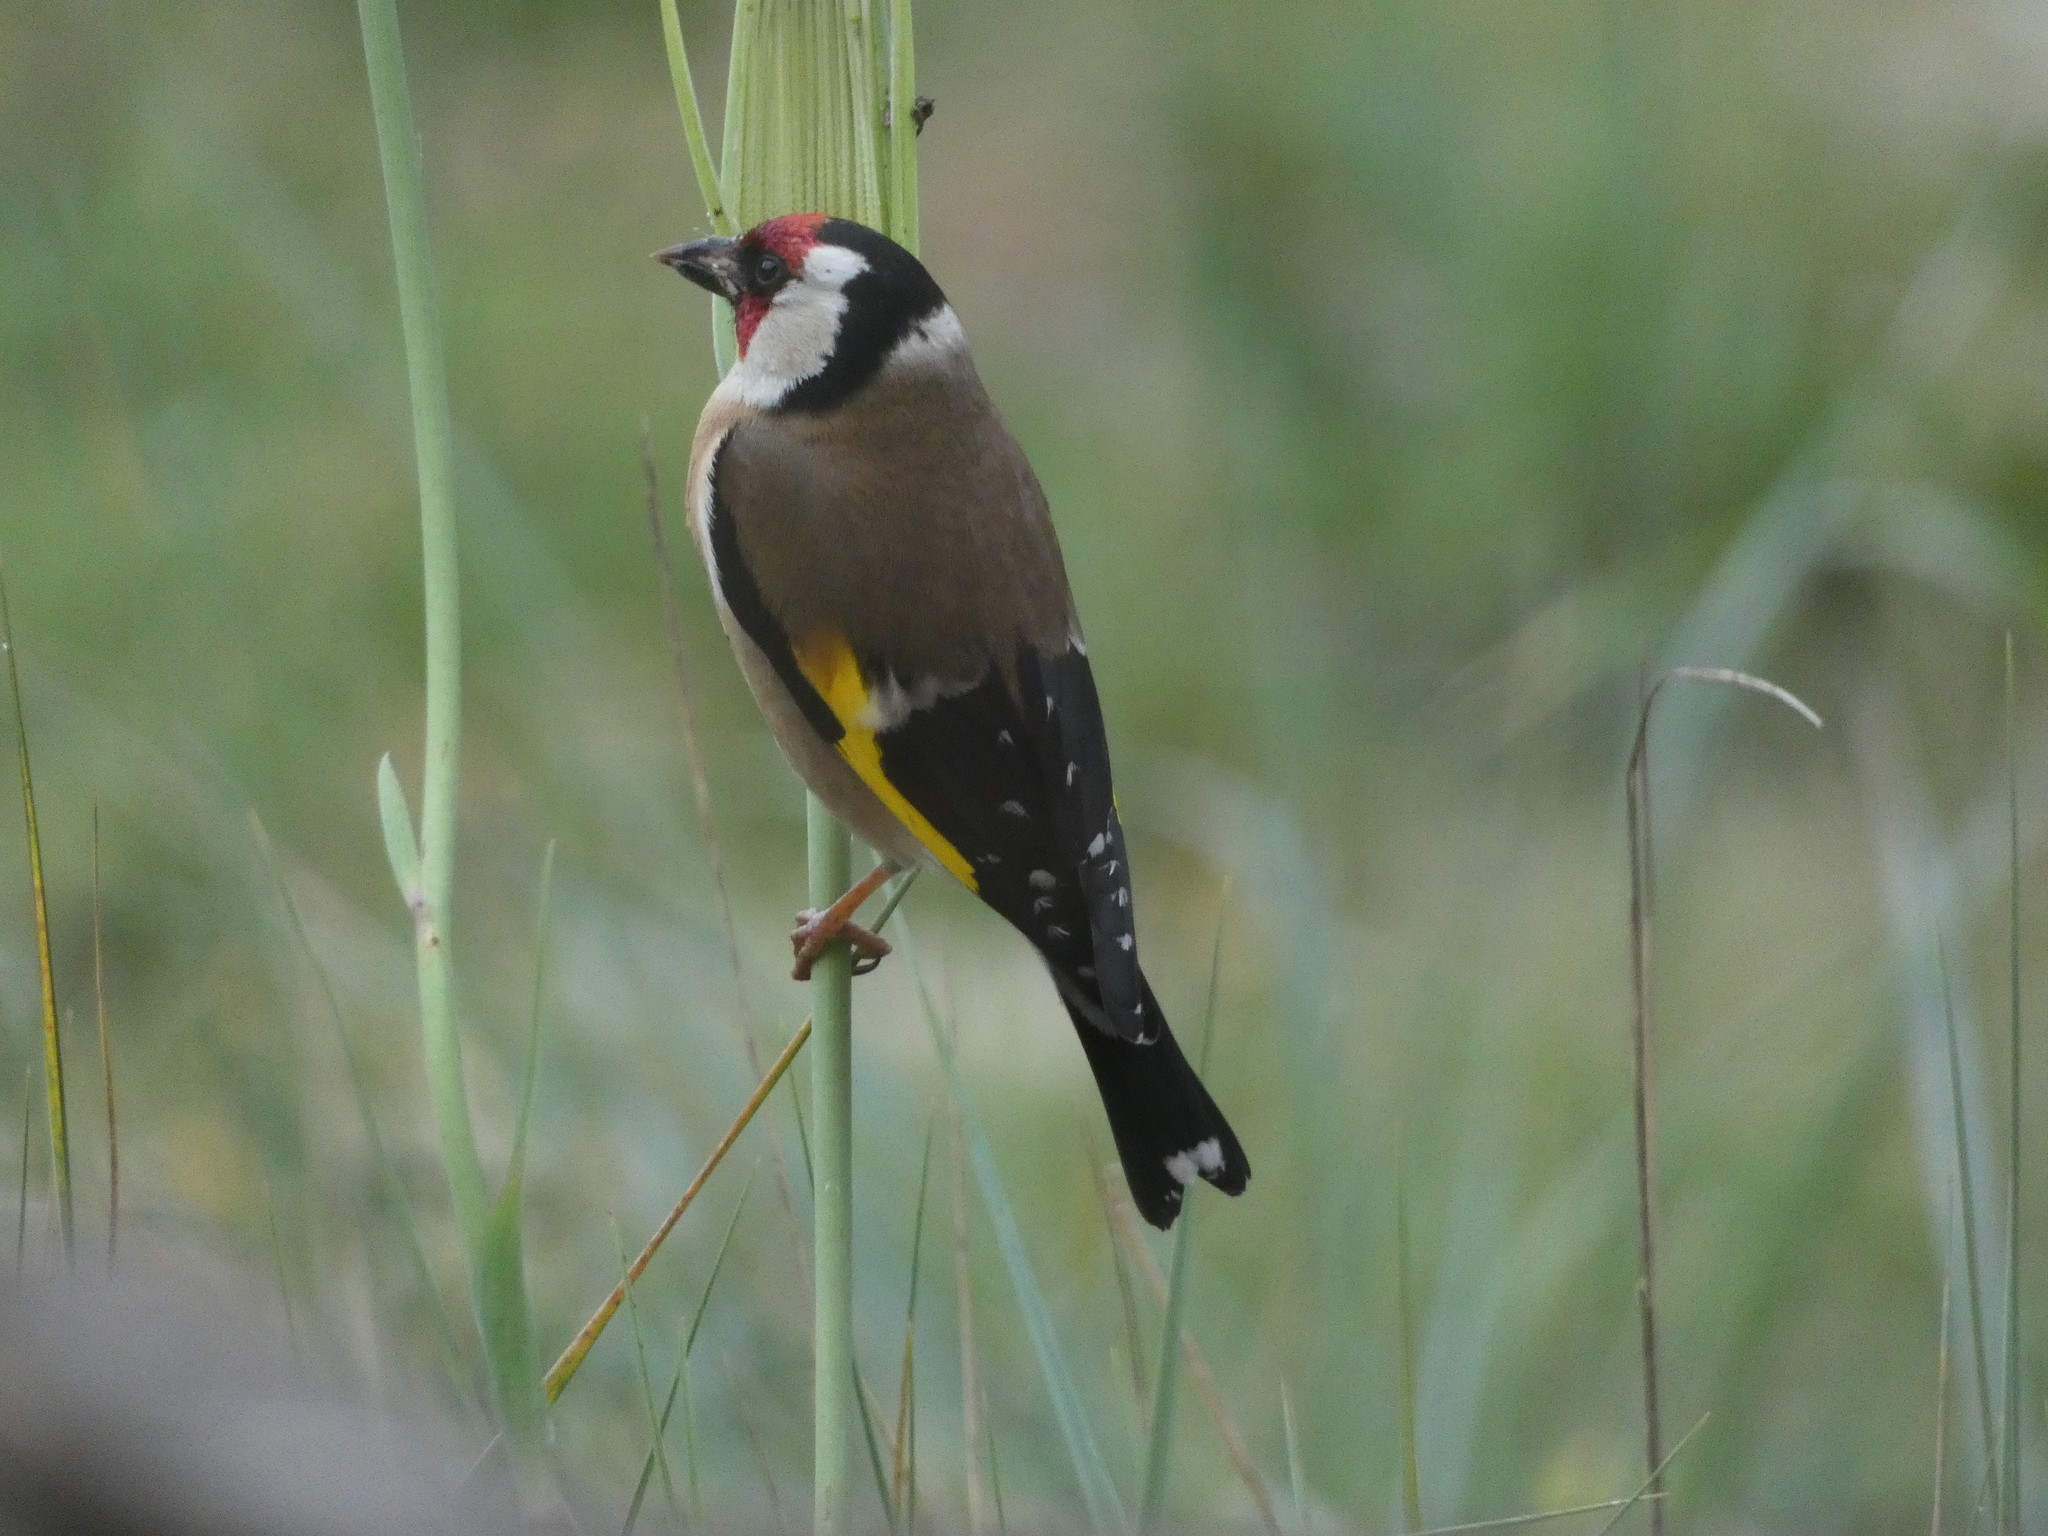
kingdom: Animalia
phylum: Chordata
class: Aves
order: Passeriformes
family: Fringillidae
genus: Carduelis
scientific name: Carduelis carduelis
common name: European goldfinch
